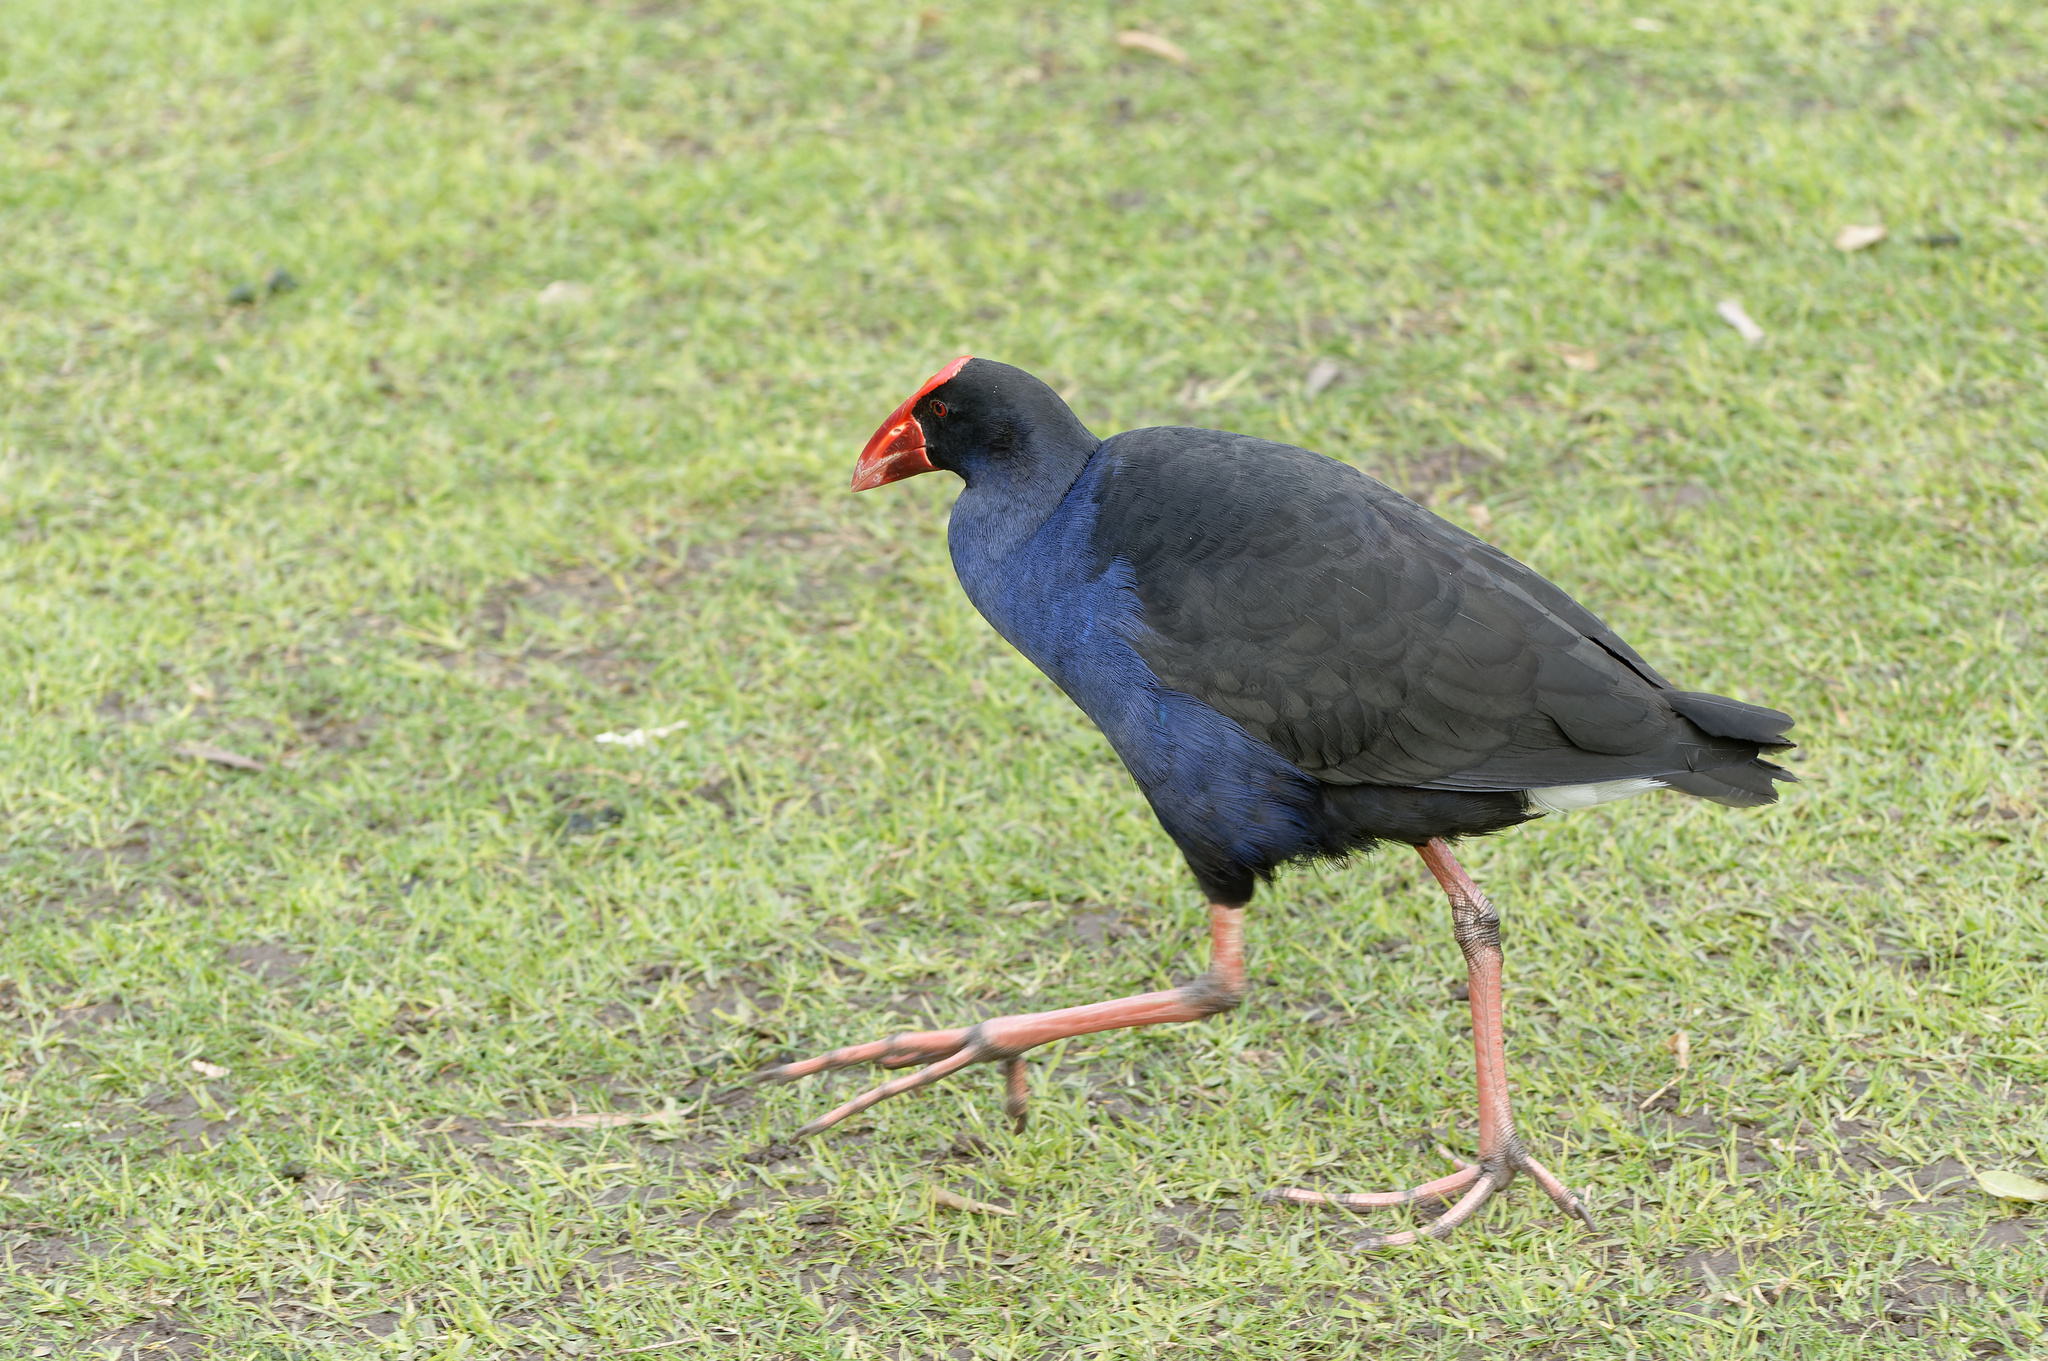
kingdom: Animalia
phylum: Chordata
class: Aves
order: Gruiformes
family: Rallidae
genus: Porphyrio
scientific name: Porphyrio melanotus
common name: Australasian swamphen
